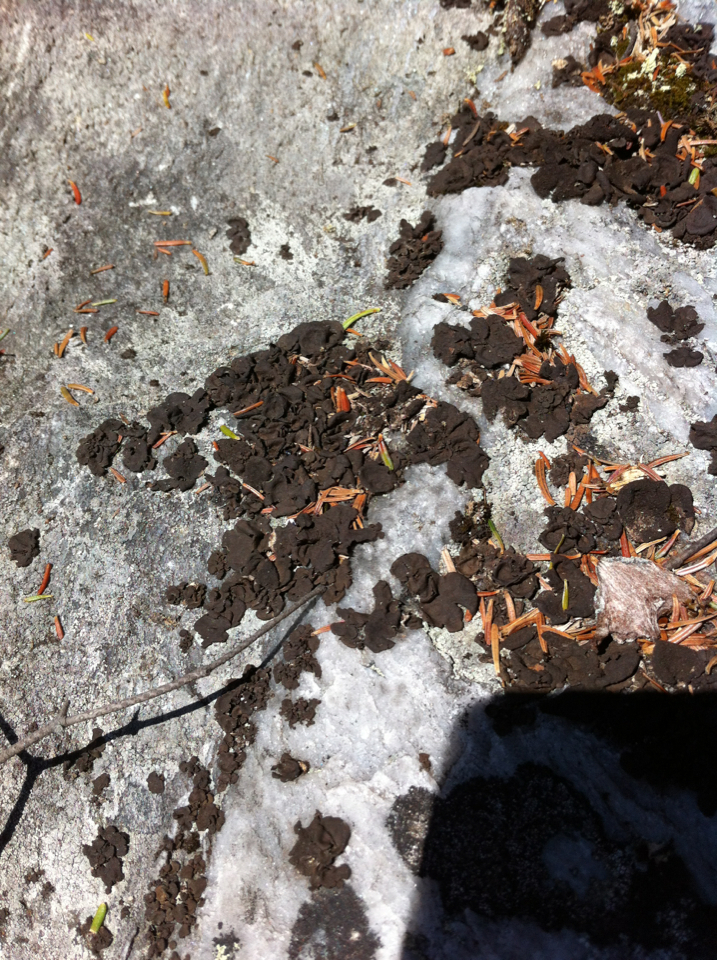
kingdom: Fungi
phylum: Ascomycota
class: Lecanoromycetes
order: Umbilicariales
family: Umbilicariaceae
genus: Umbilicaria
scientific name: Umbilicaria deusta
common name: Peppered rock tripe
